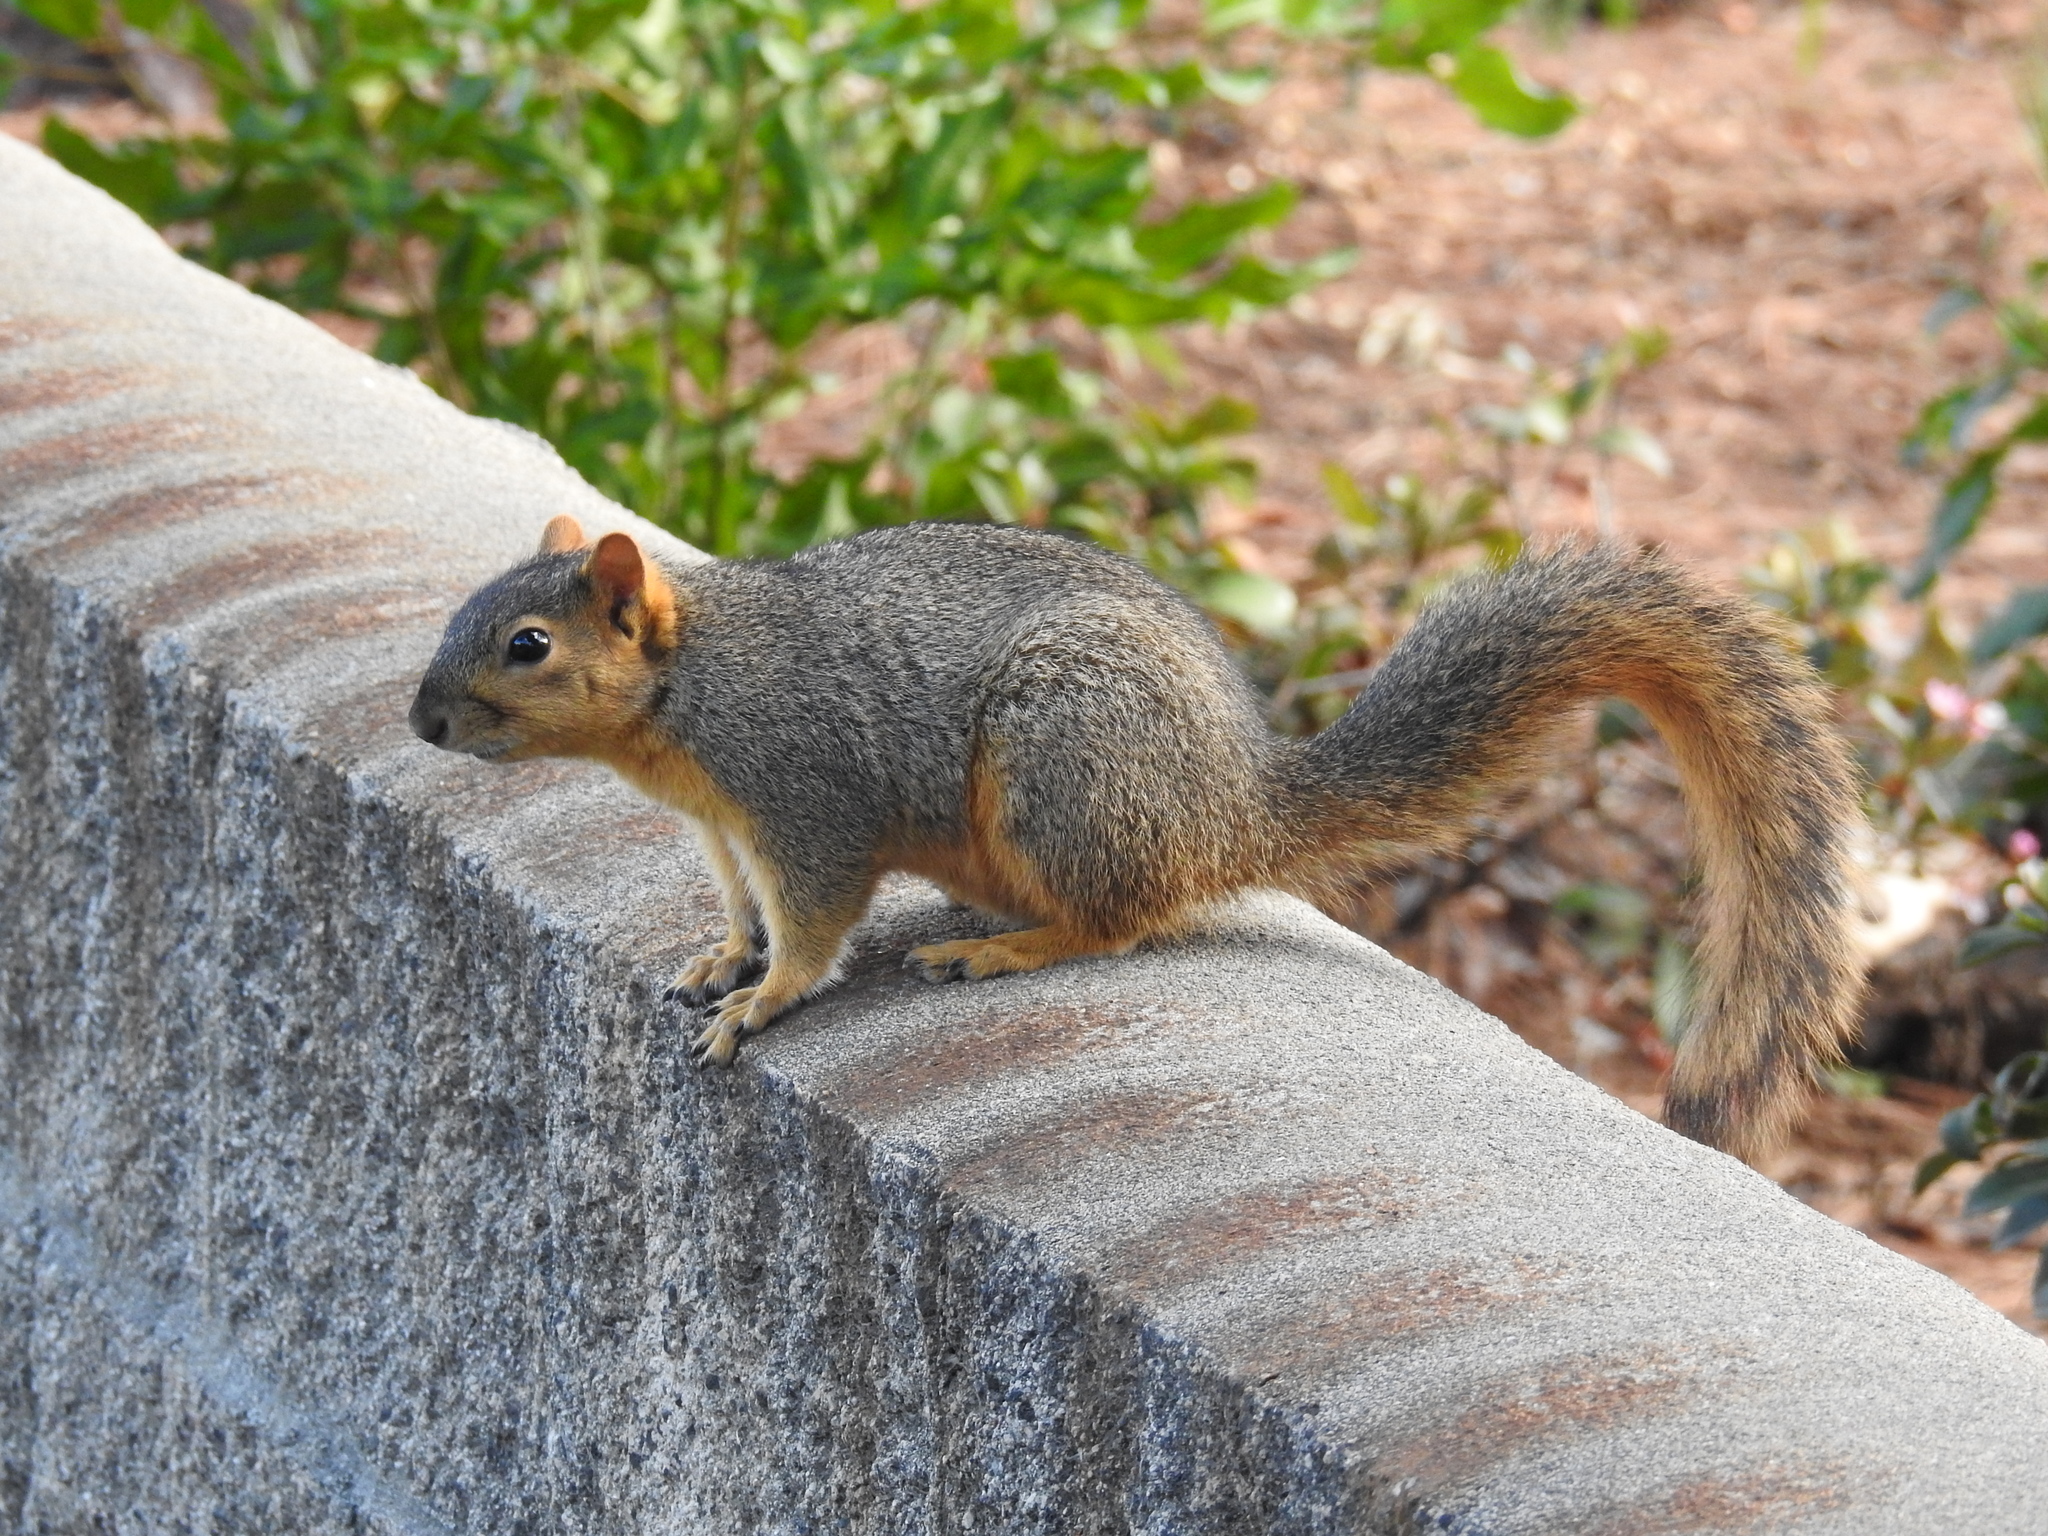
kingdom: Animalia
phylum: Chordata
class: Mammalia
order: Rodentia
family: Sciuridae
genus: Sciurus
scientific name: Sciurus niger
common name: Fox squirrel
